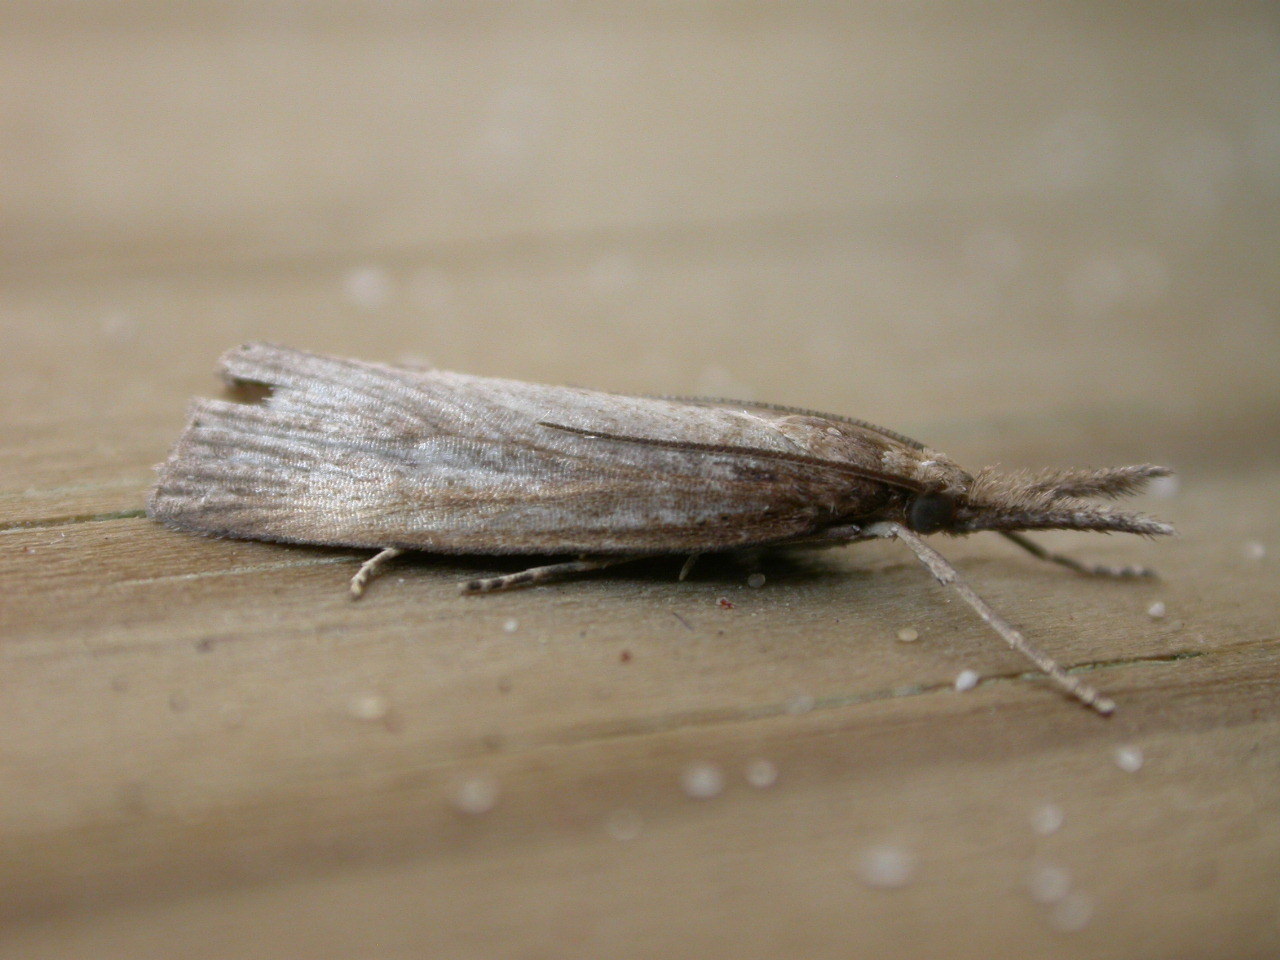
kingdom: Animalia
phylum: Arthropoda
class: Insecta
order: Lepidoptera
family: Crambidae
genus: Chilo
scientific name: Chilo phragmitella
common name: Reed veneer
